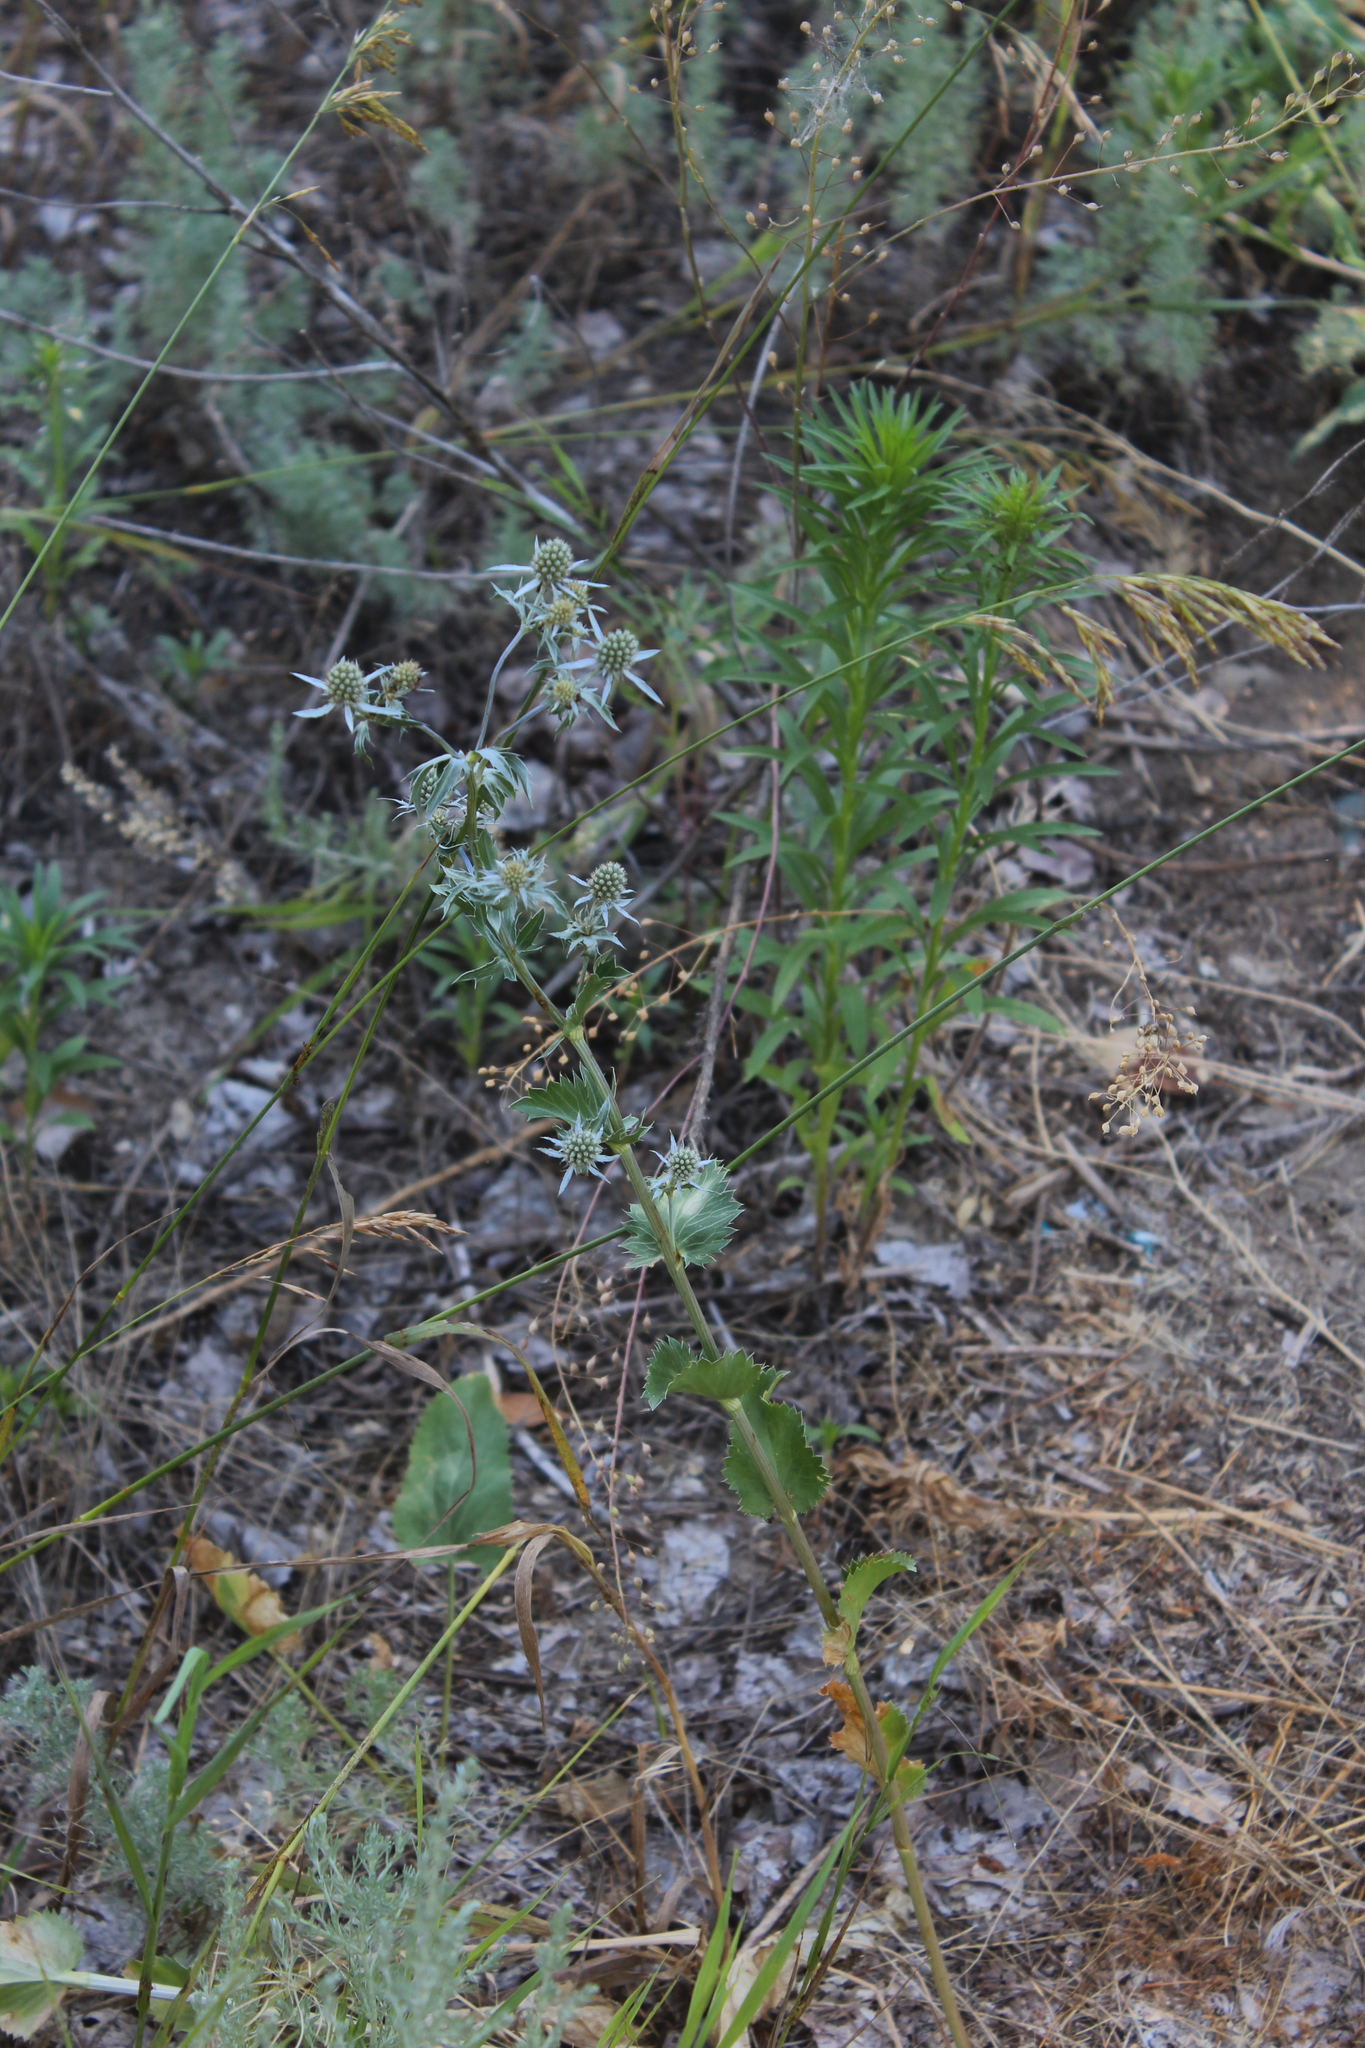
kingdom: Plantae
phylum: Tracheophyta
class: Magnoliopsida
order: Apiales
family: Apiaceae
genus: Eryngium
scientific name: Eryngium planum
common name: Blue eryngo
